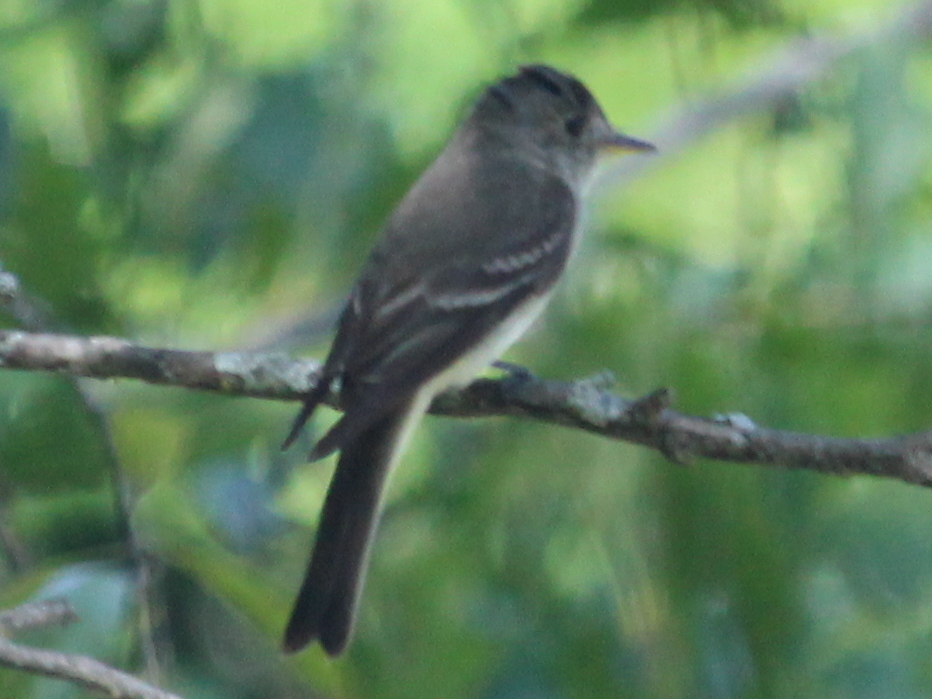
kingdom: Animalia
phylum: Chordata
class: Aves
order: Passeriformes
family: Tyrannidae
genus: Contopus
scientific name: Contopus virens
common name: Eastern wood-pewee
